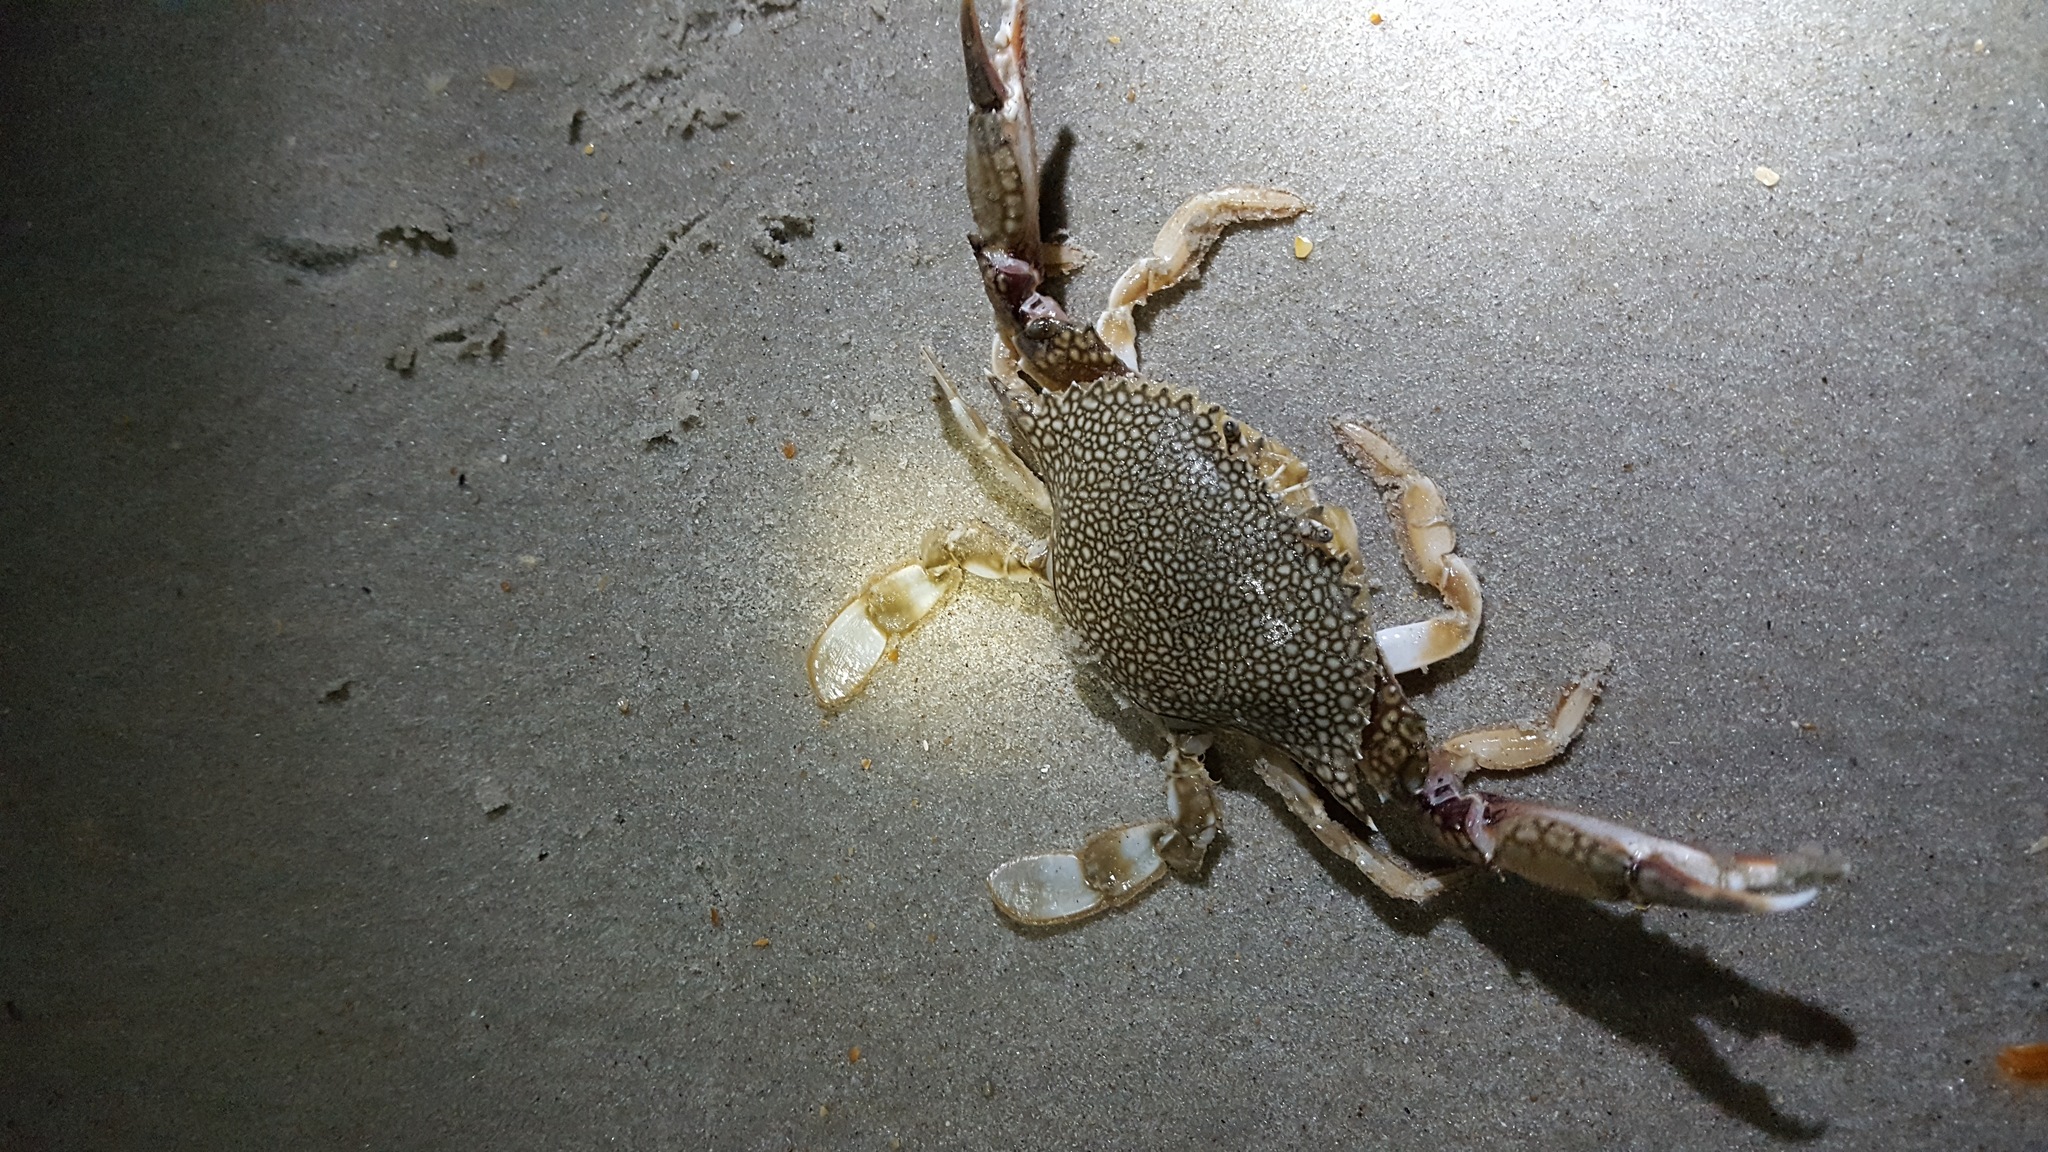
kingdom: Animalia
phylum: Arthropoda
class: Malacostraca
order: Decapoda
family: Portunidae
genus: Arenaeus
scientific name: Arenaeus cribrarius
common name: Speckled crab
